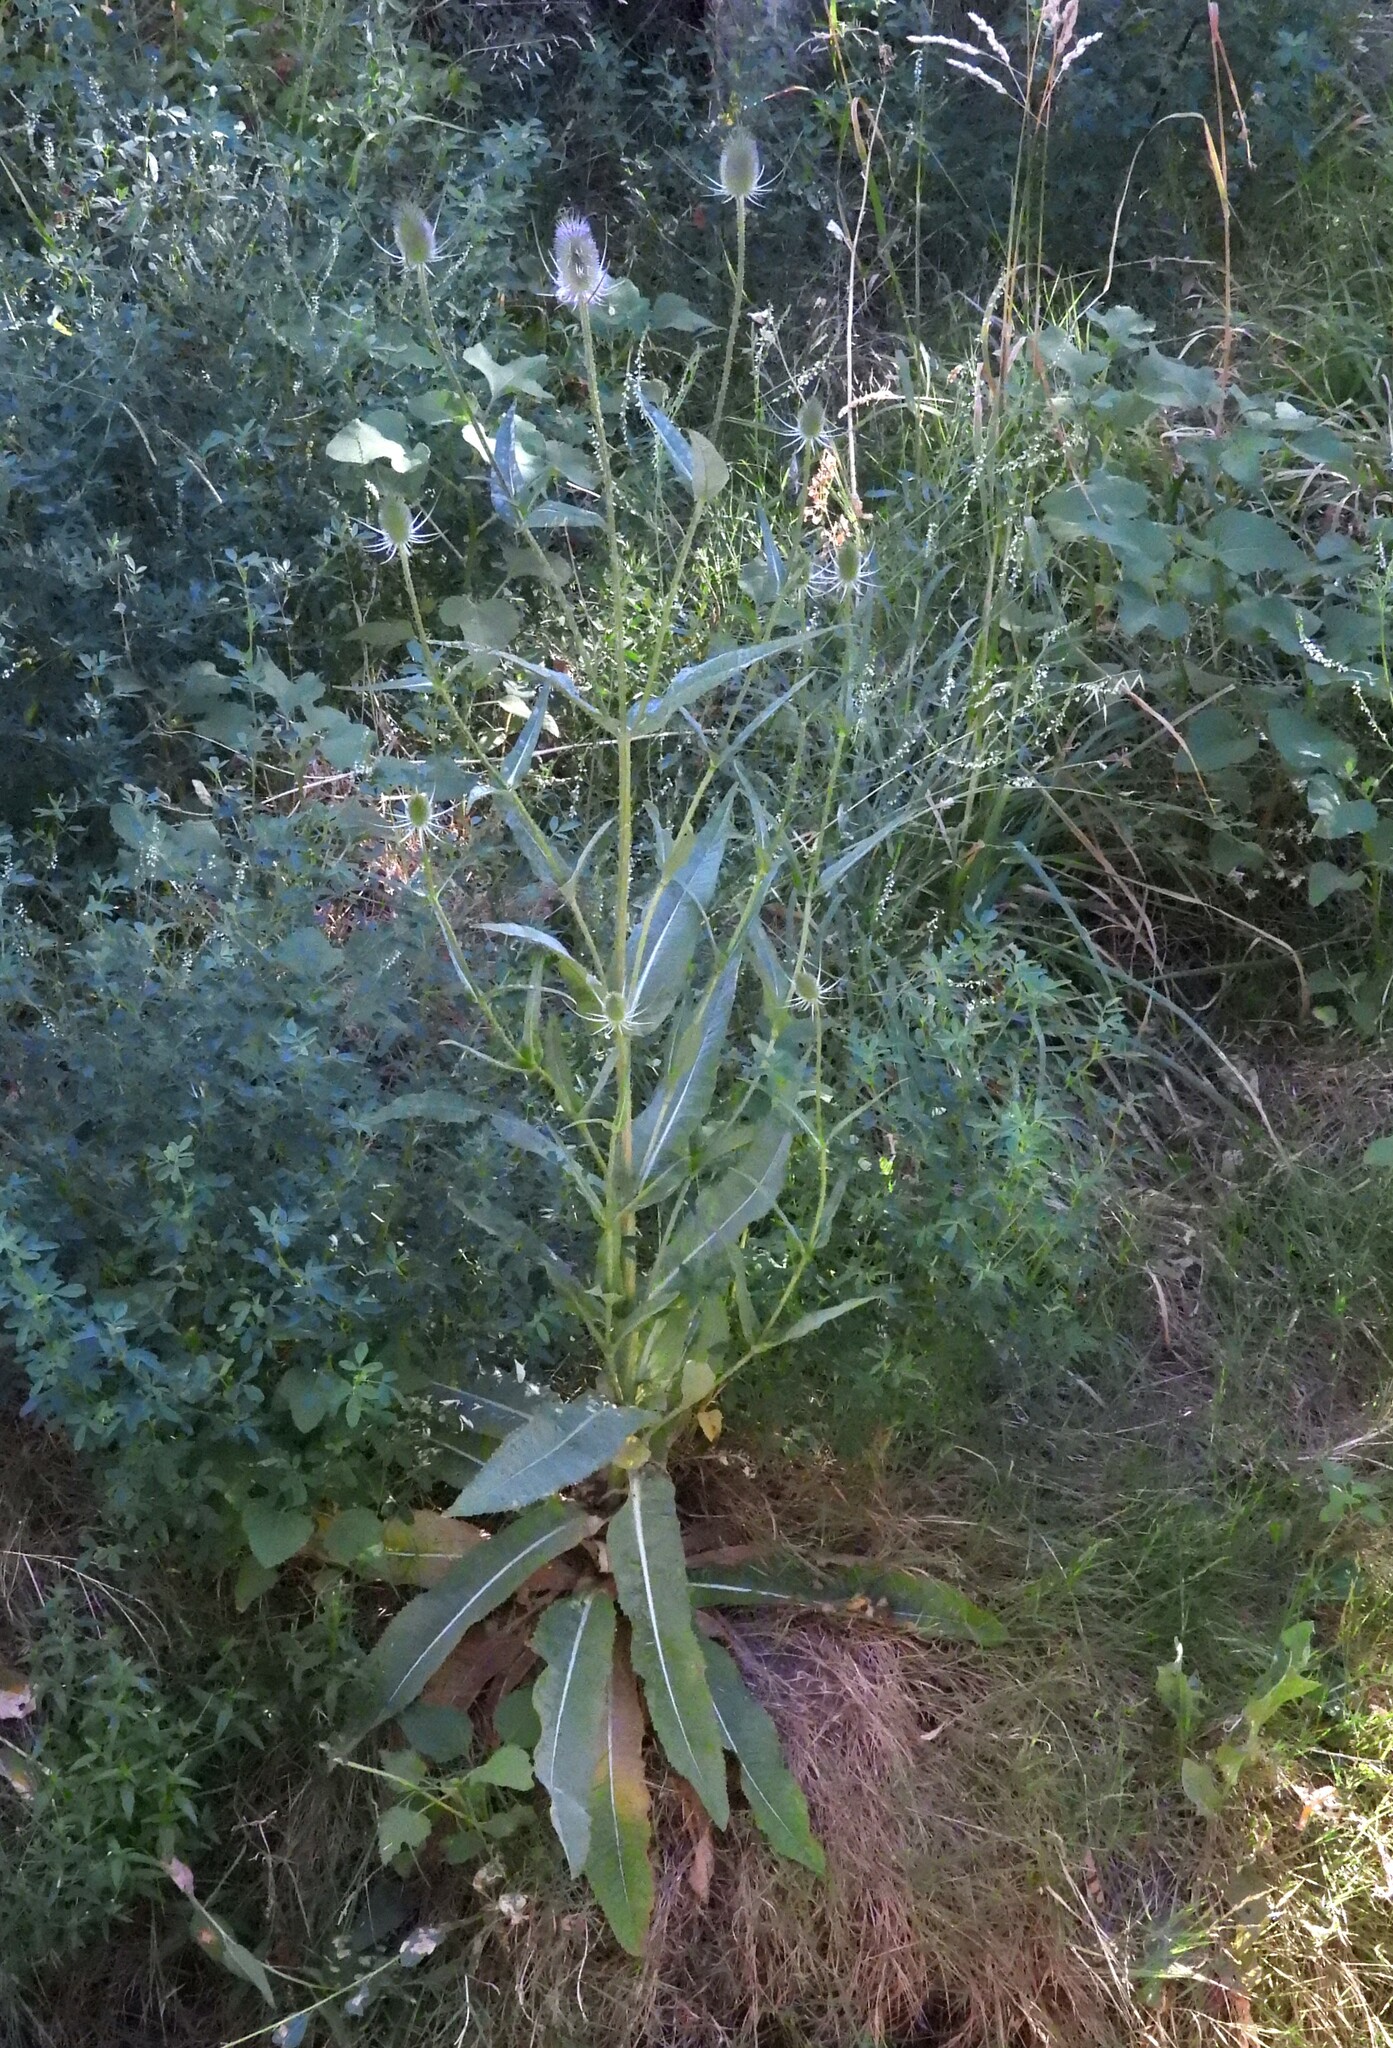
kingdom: Plantae
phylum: Tracheophyta
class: Magnoliopsida
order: Dipsacales
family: Caprifoliaceae
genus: Dipsacus
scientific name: Dipsacus fullonum
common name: Teasel
